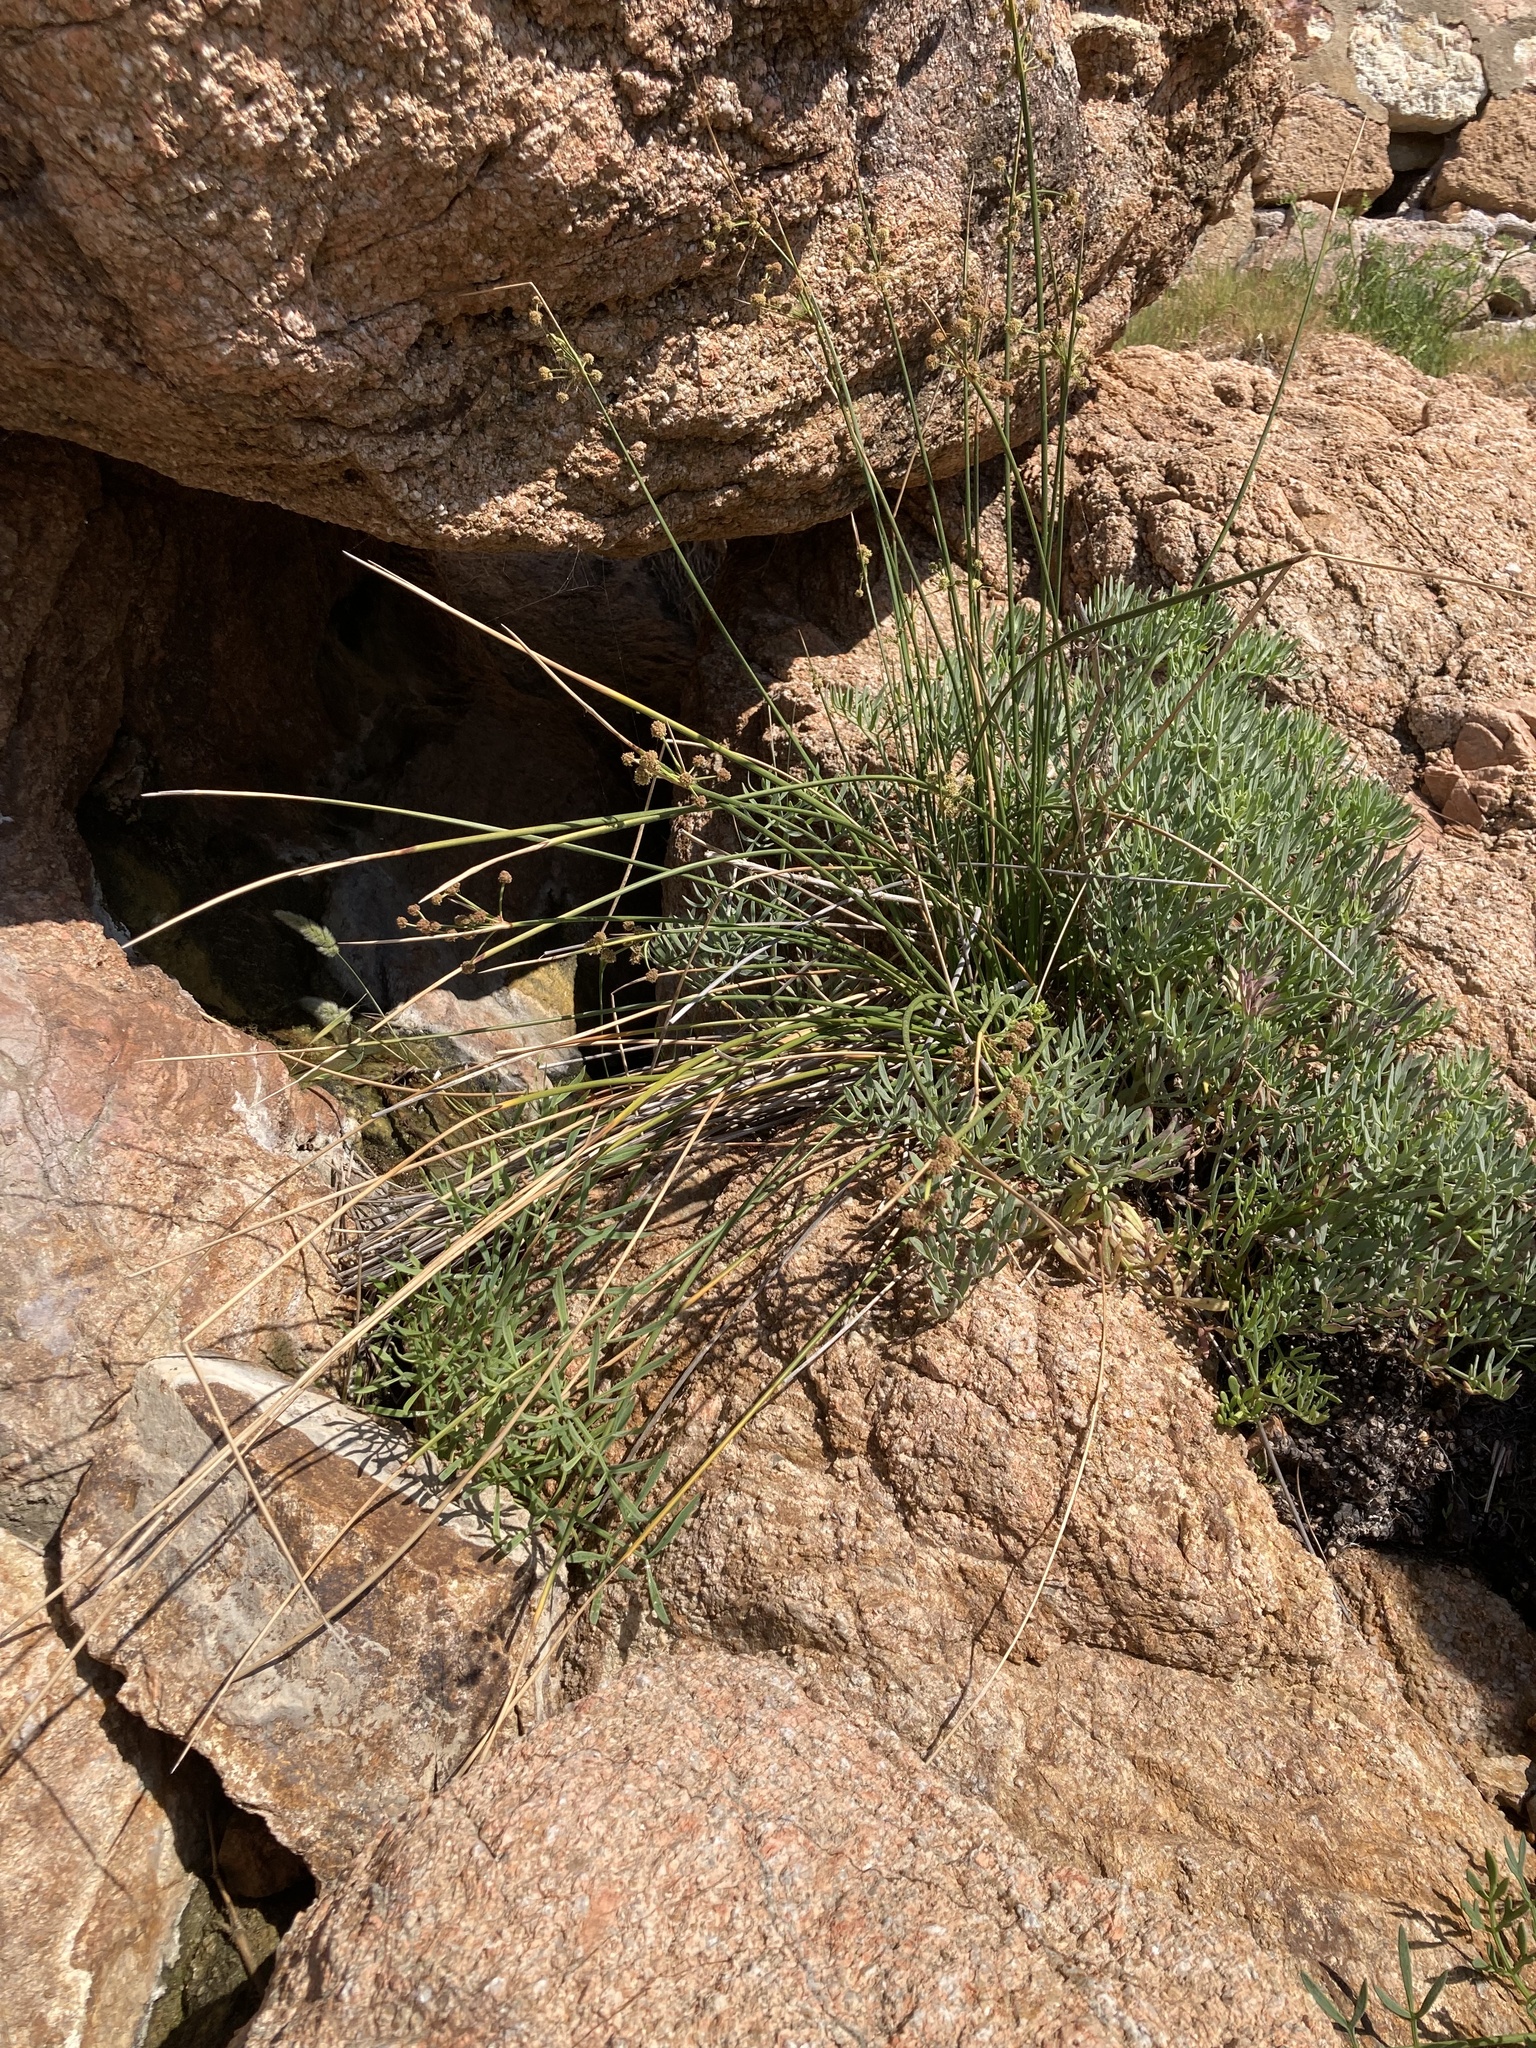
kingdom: Plantae
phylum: Tracheophyta
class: Liliopsida
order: Poales
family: Cyperaceae
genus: Scirpoides
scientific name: Scirpoides holoschoenus
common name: Round-headed club-rush
